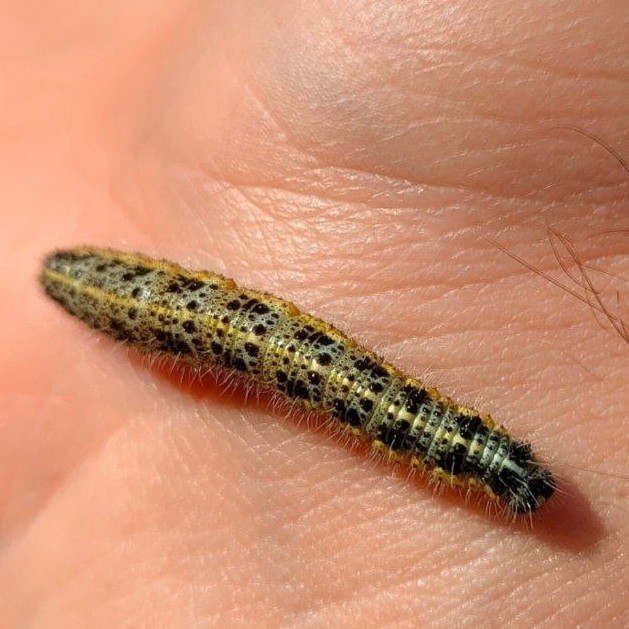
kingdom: Animalia
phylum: Arthropoda
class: Insecta
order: Lepidoptera
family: Pieridae
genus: Pieris
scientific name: Pieris brassicae
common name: Large white
